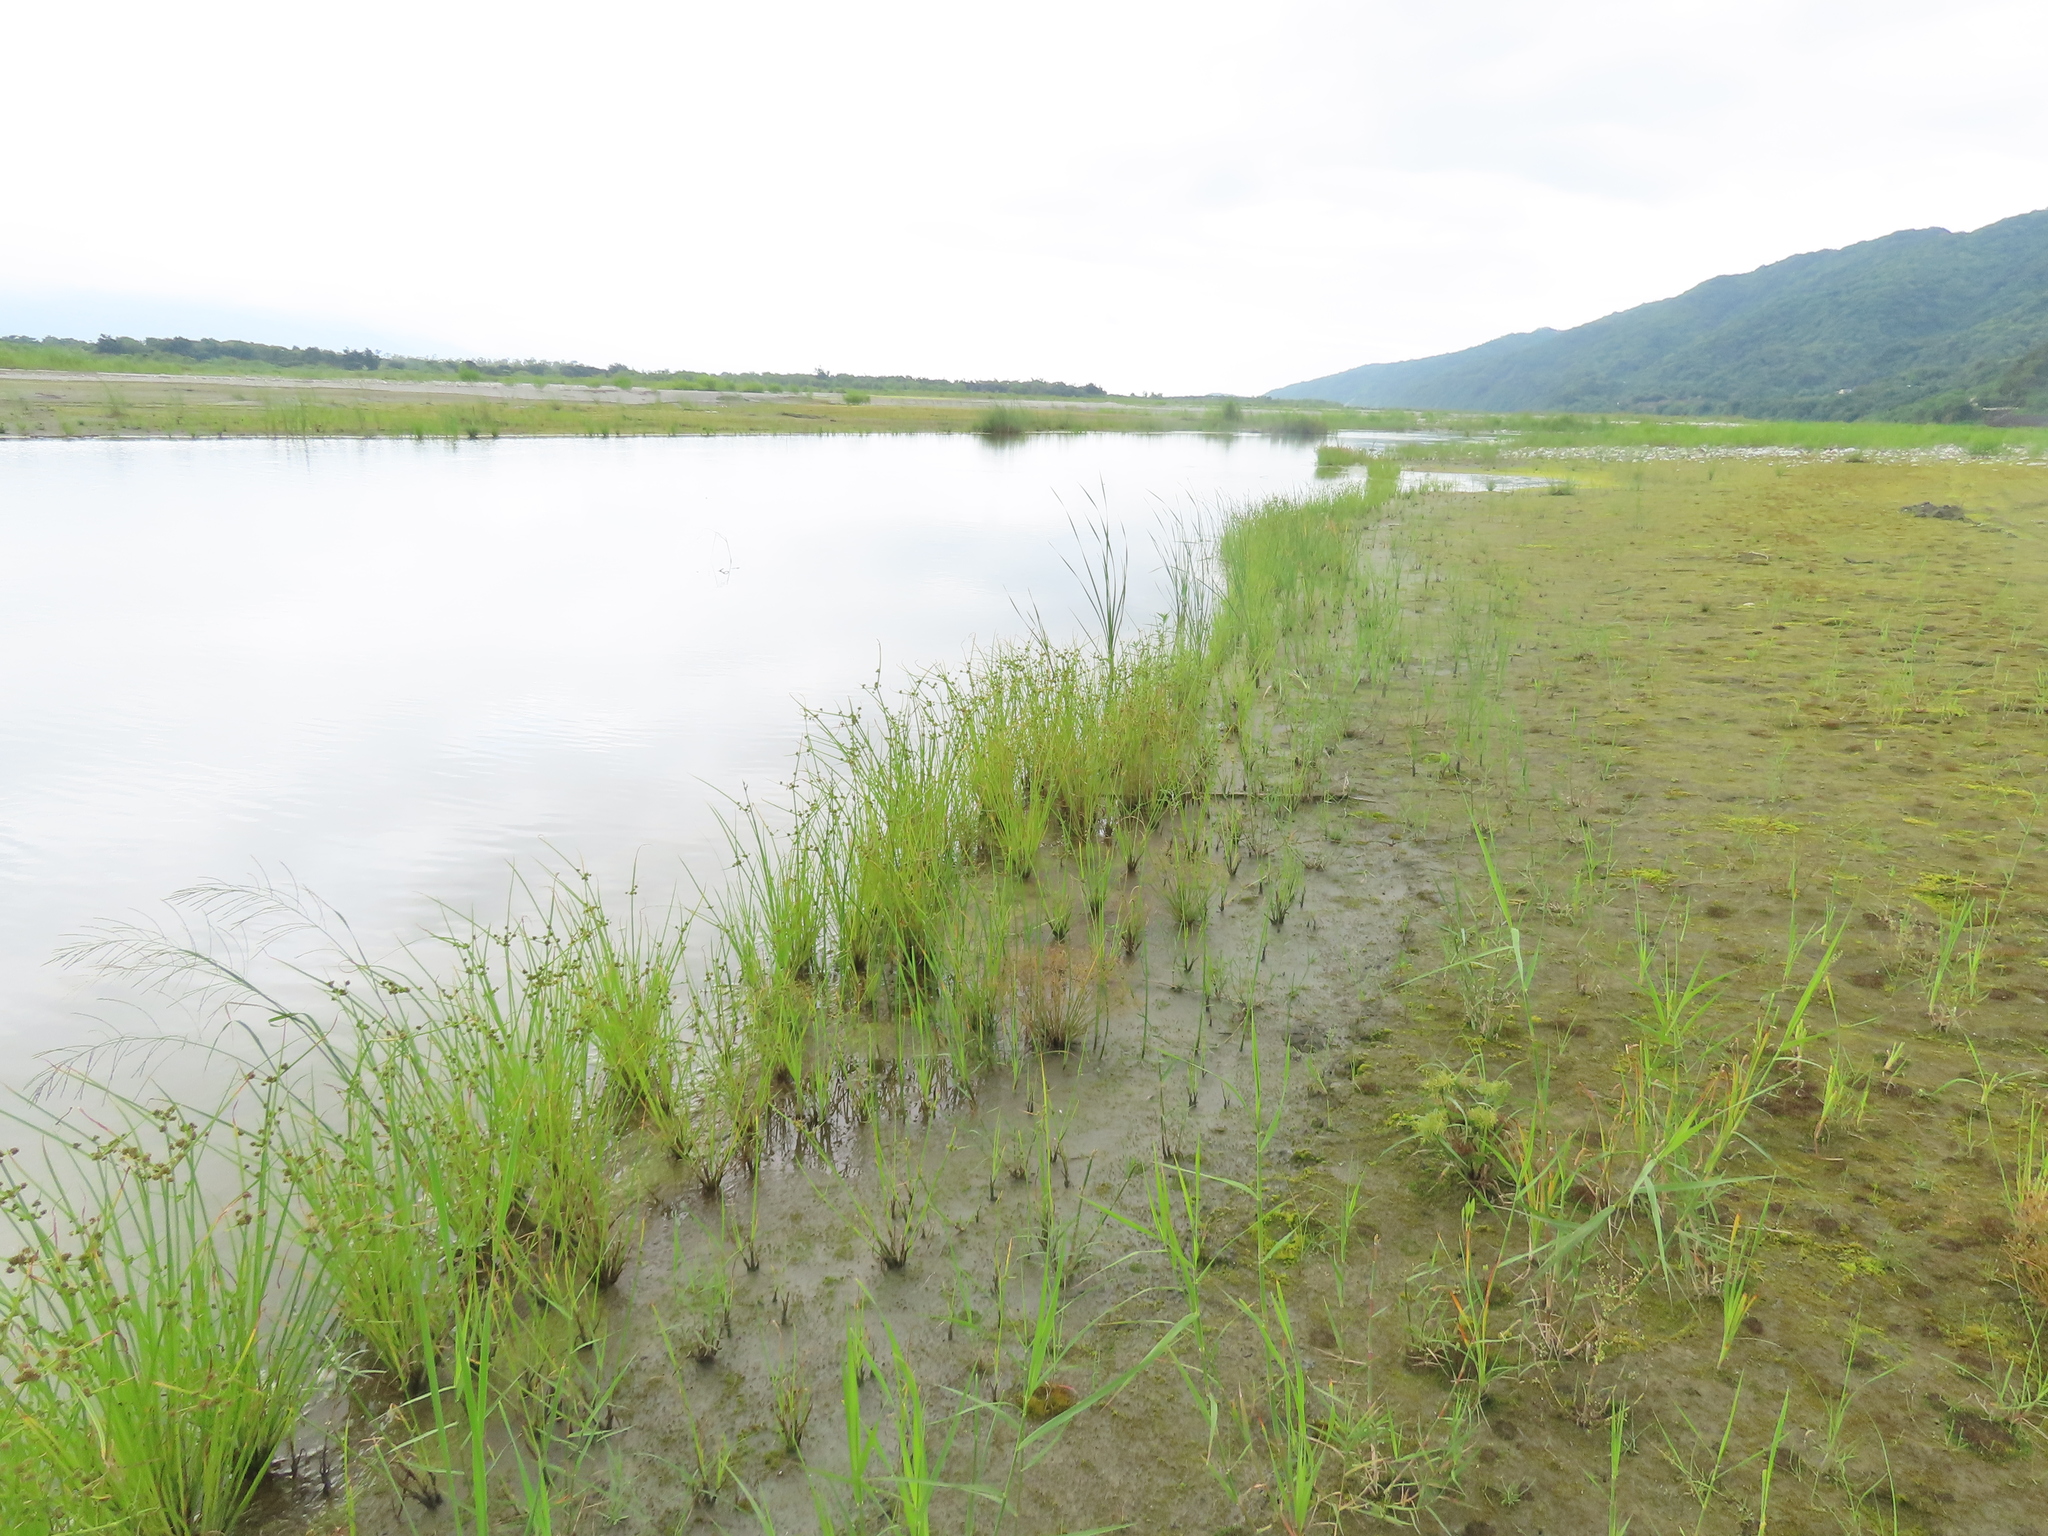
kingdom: Plantae
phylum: Tracheophyta
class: Liliopsida
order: Poales
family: Cyperaceae
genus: Cyperus
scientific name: Cyperus difformis
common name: Variable flatsedge
